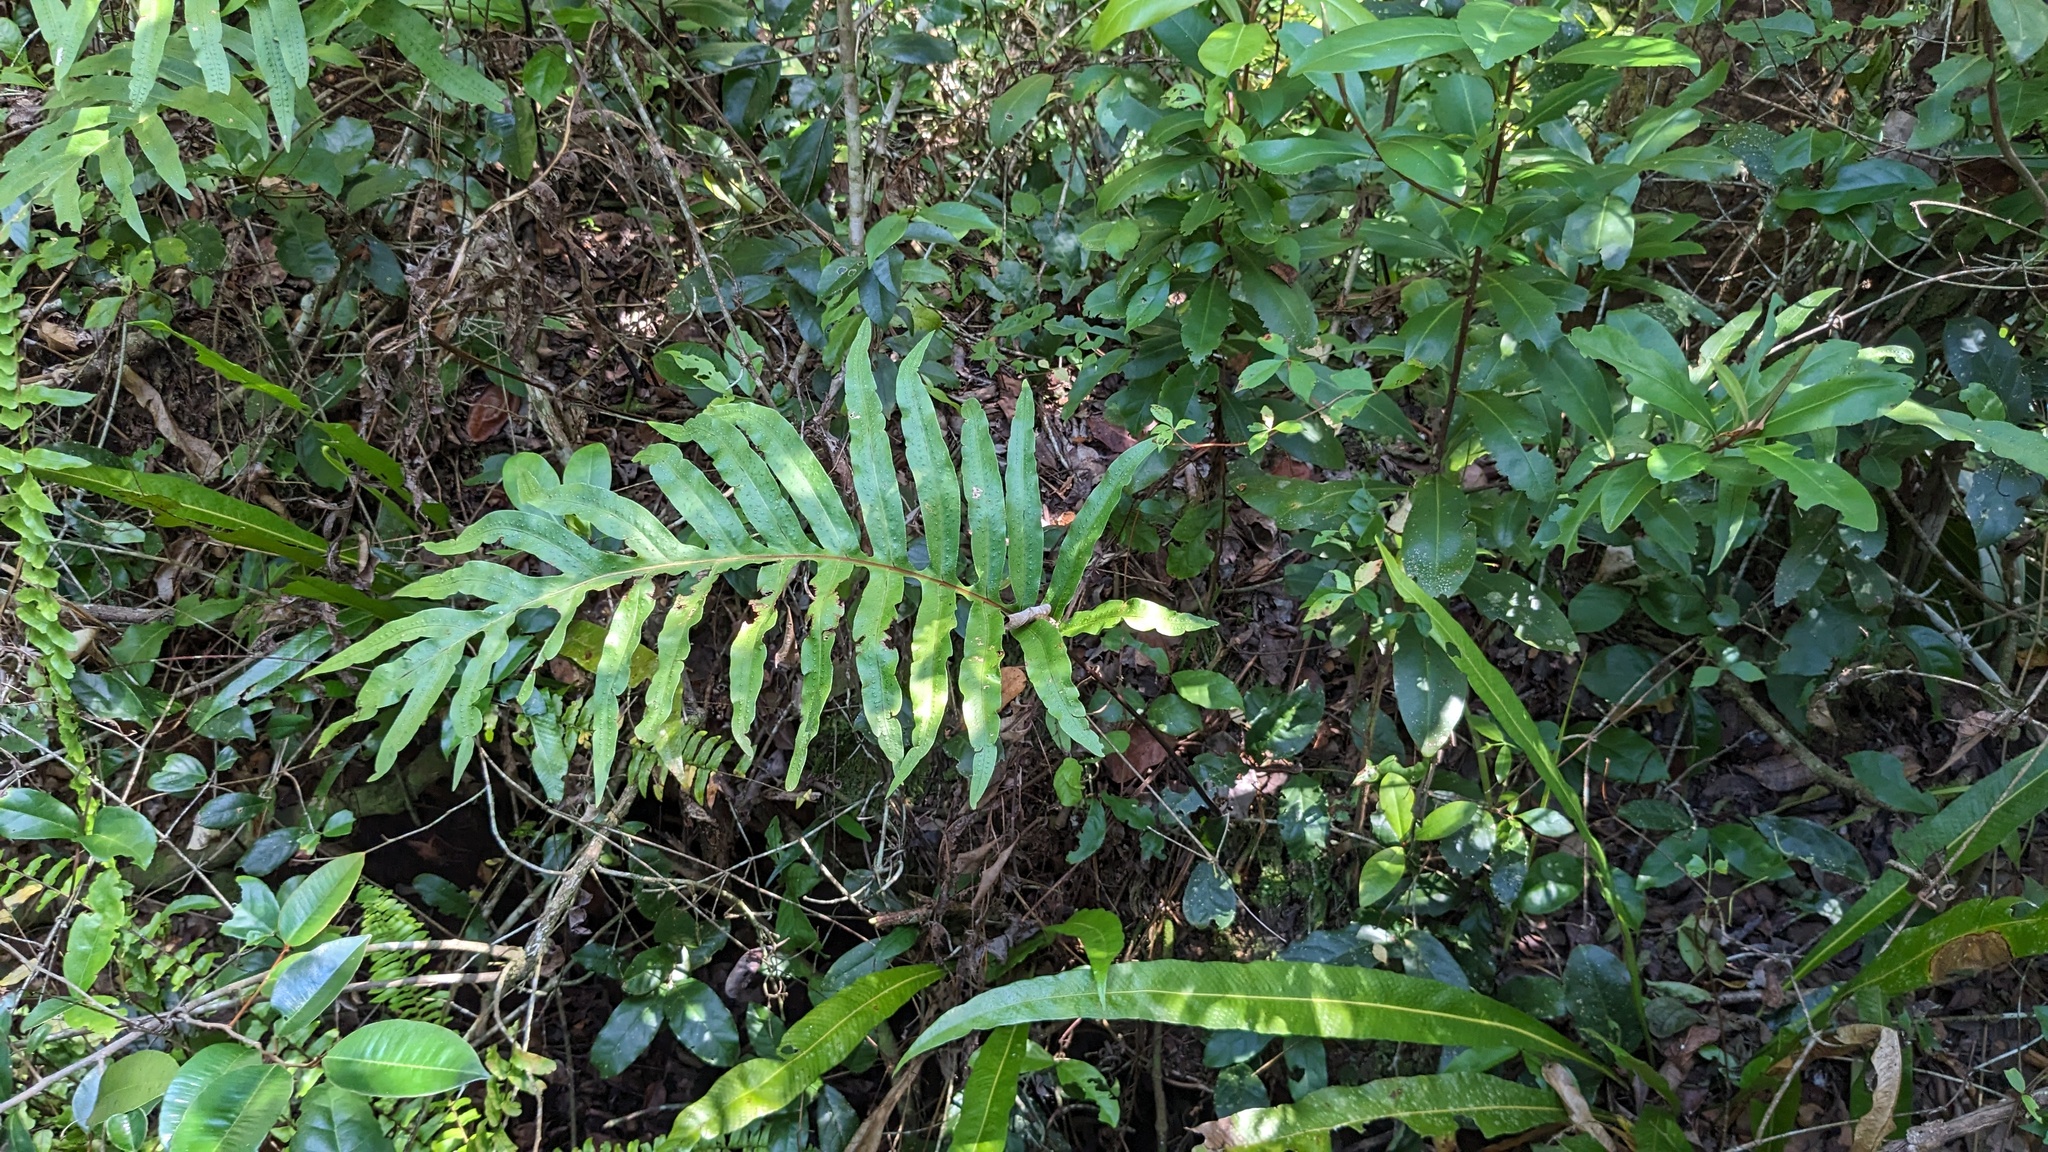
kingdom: Plantae
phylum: Tracheophyta
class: Polypodiopsida
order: Polypodiales
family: Polypodiaceae
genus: Phlebodium
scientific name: Phlebodium aureum
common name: Gold-foot fern
